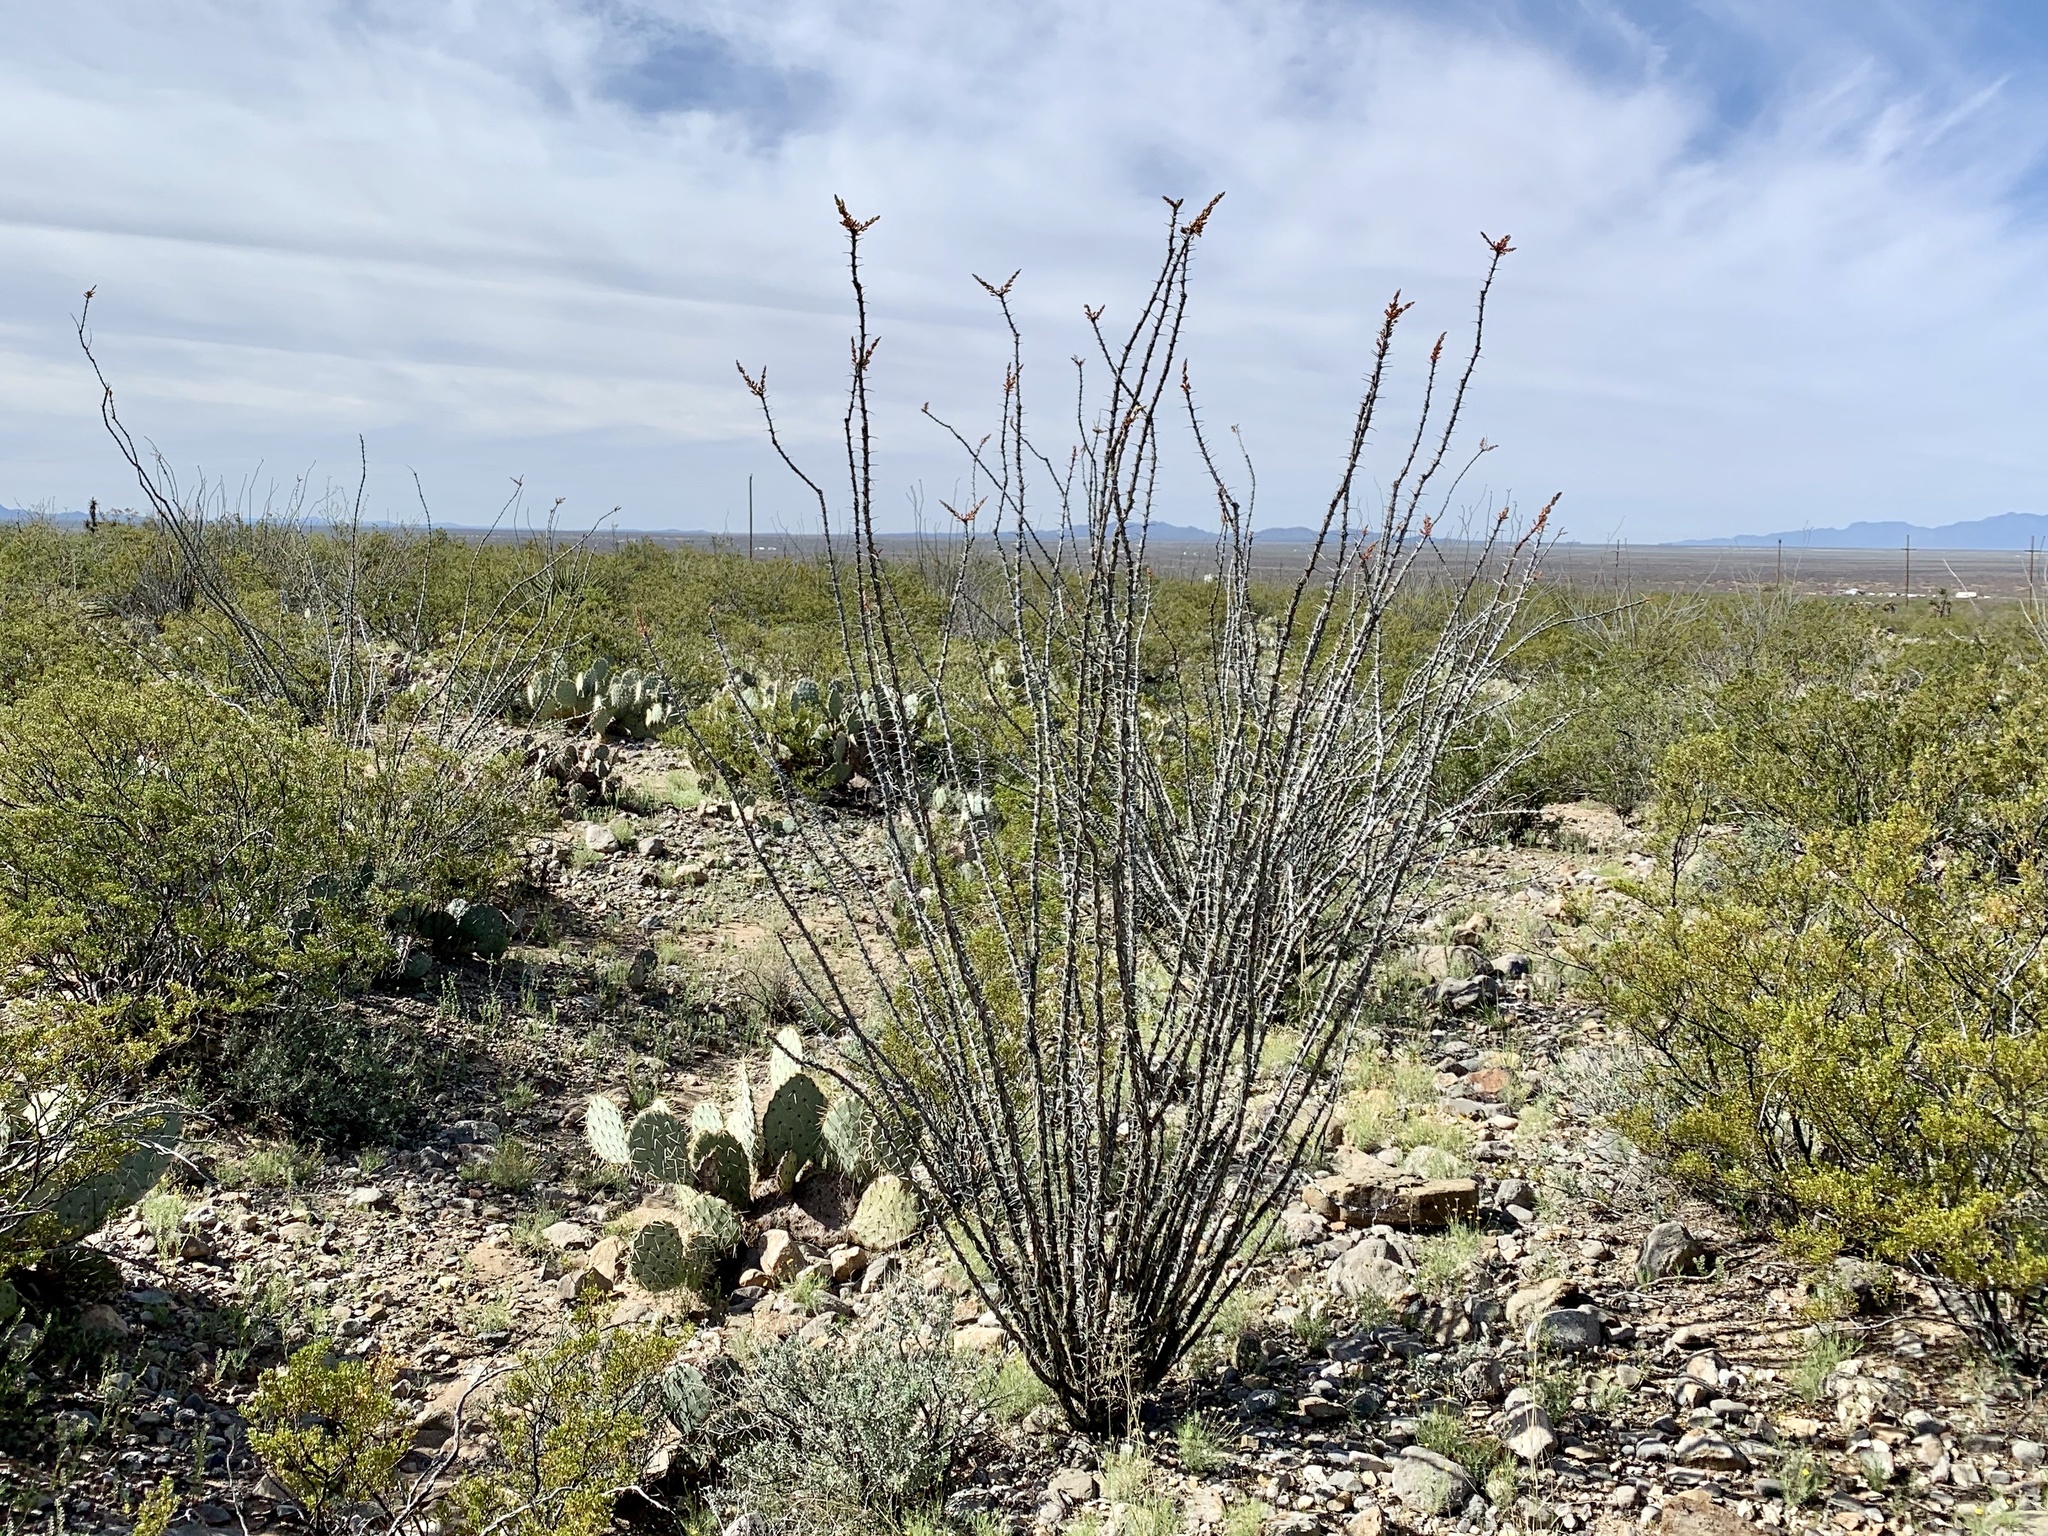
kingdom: Plantae
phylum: Tracheophyta
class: Magnoliopsida
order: Ericales
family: Fouquieriaceae
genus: Fouquieria
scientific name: Fouquieria splendens
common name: Vine-cactus
